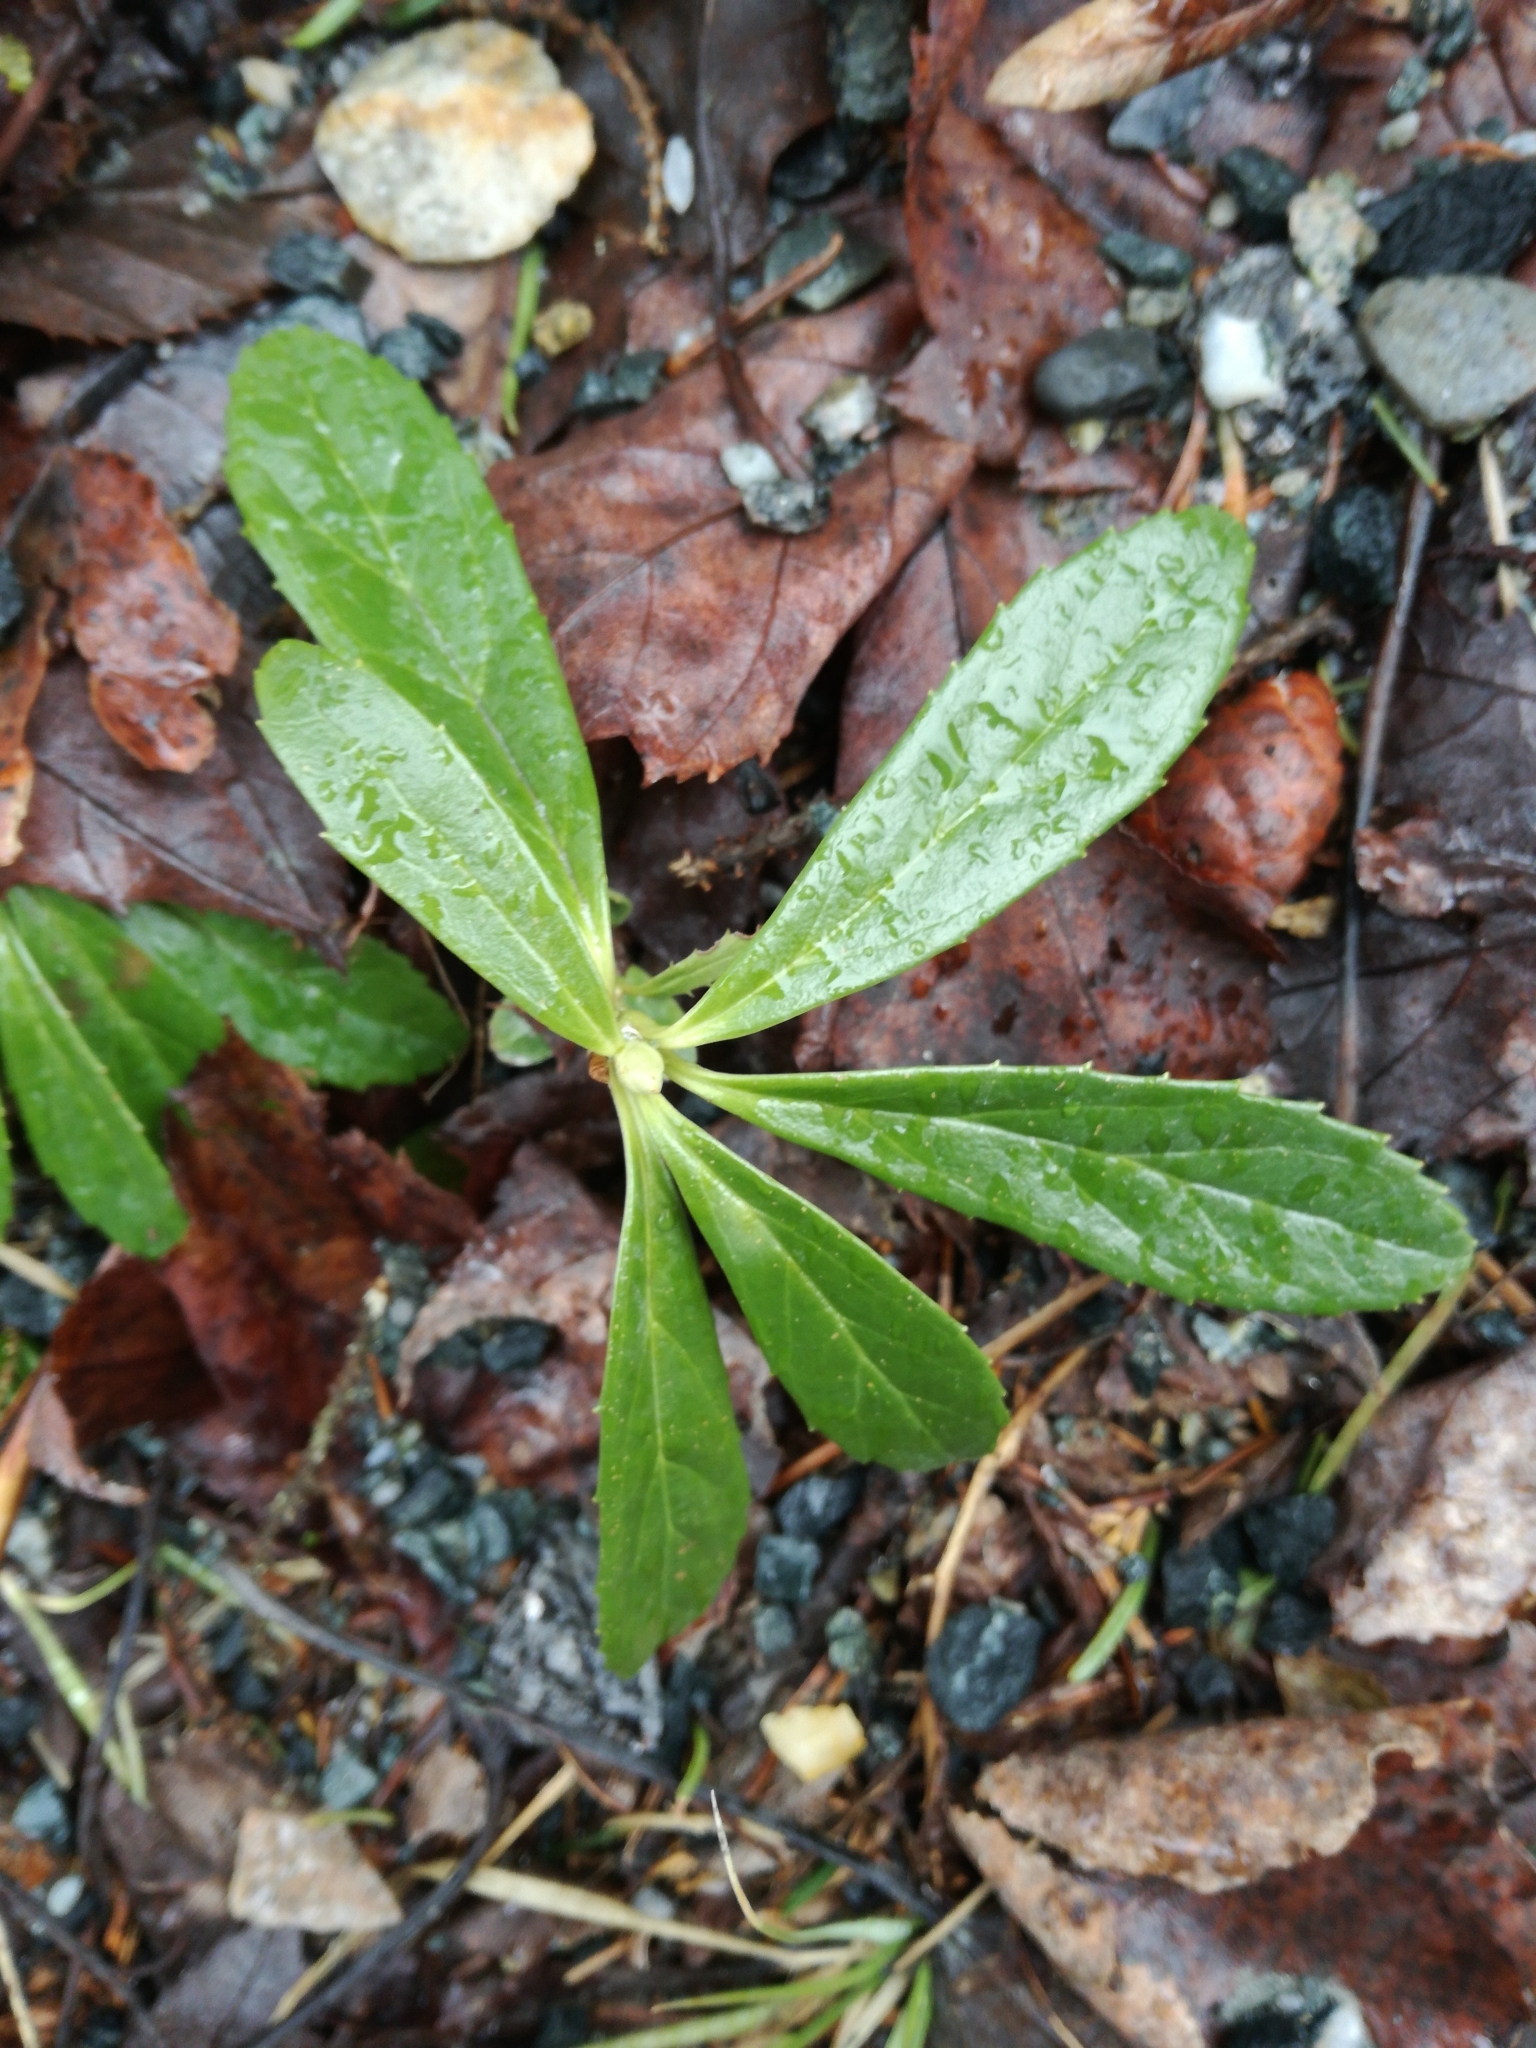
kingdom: Plantae
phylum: Tracheophyta
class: Magnoliopsida
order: Ericales
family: Ericaceae
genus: Chimaphila
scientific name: Chimaphila umbellata
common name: Pipsissewa
